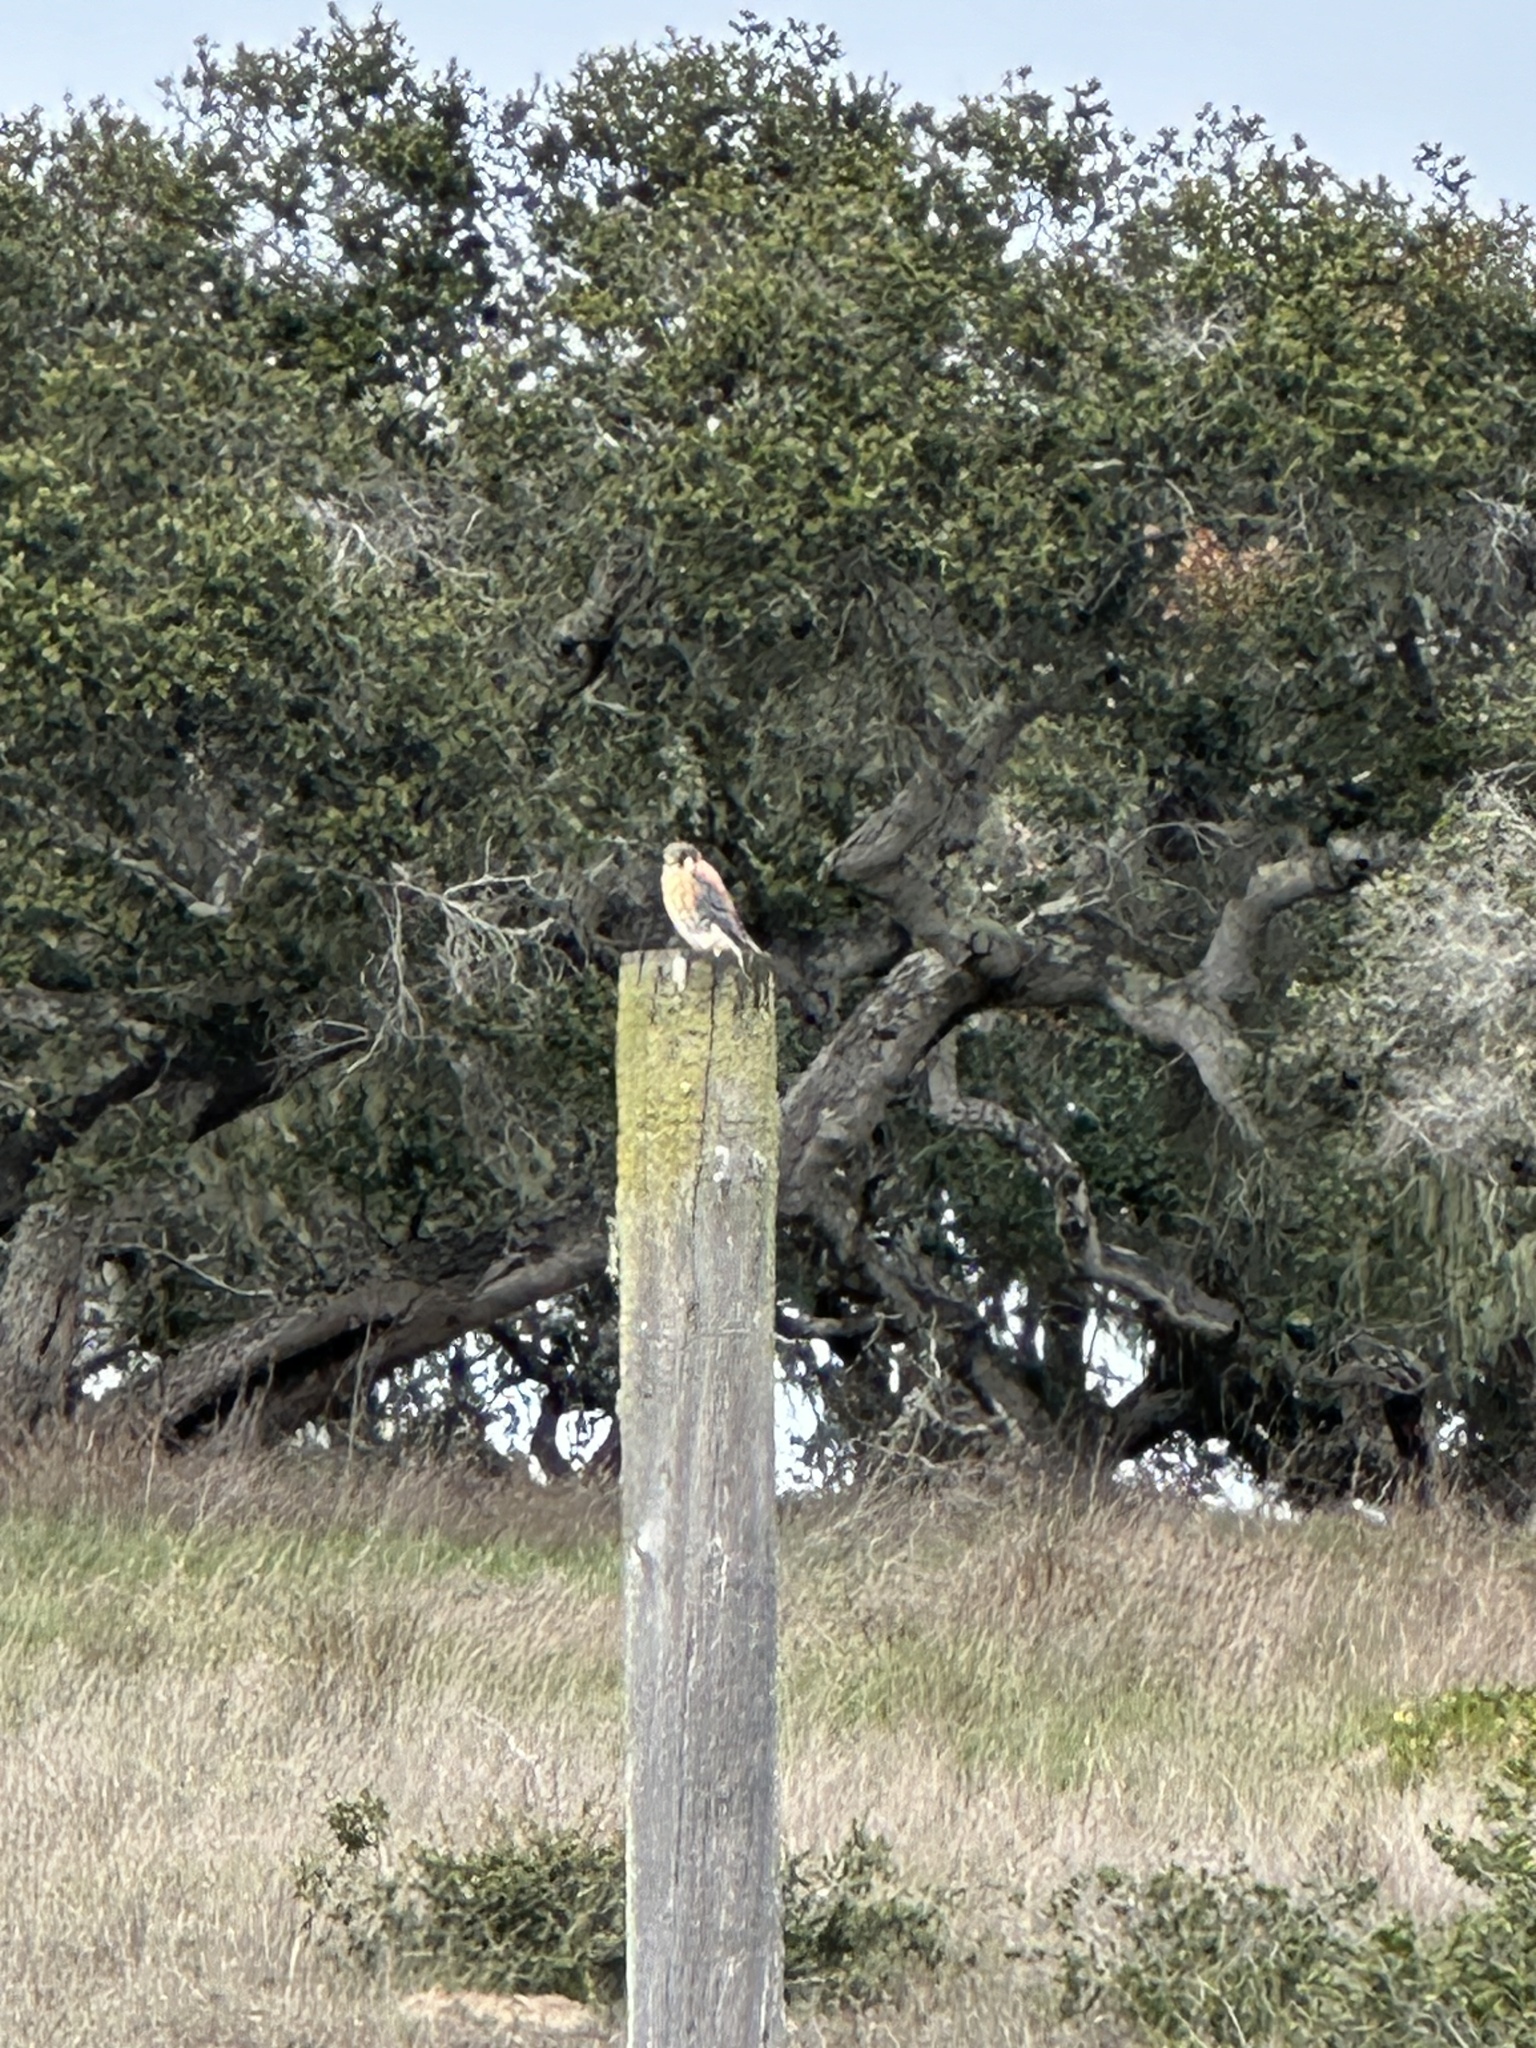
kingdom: Animalia
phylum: Chordata
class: Aves
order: Falconiformes
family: Falconidae
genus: Falco
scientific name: Falco sparverius
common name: American kestrel
